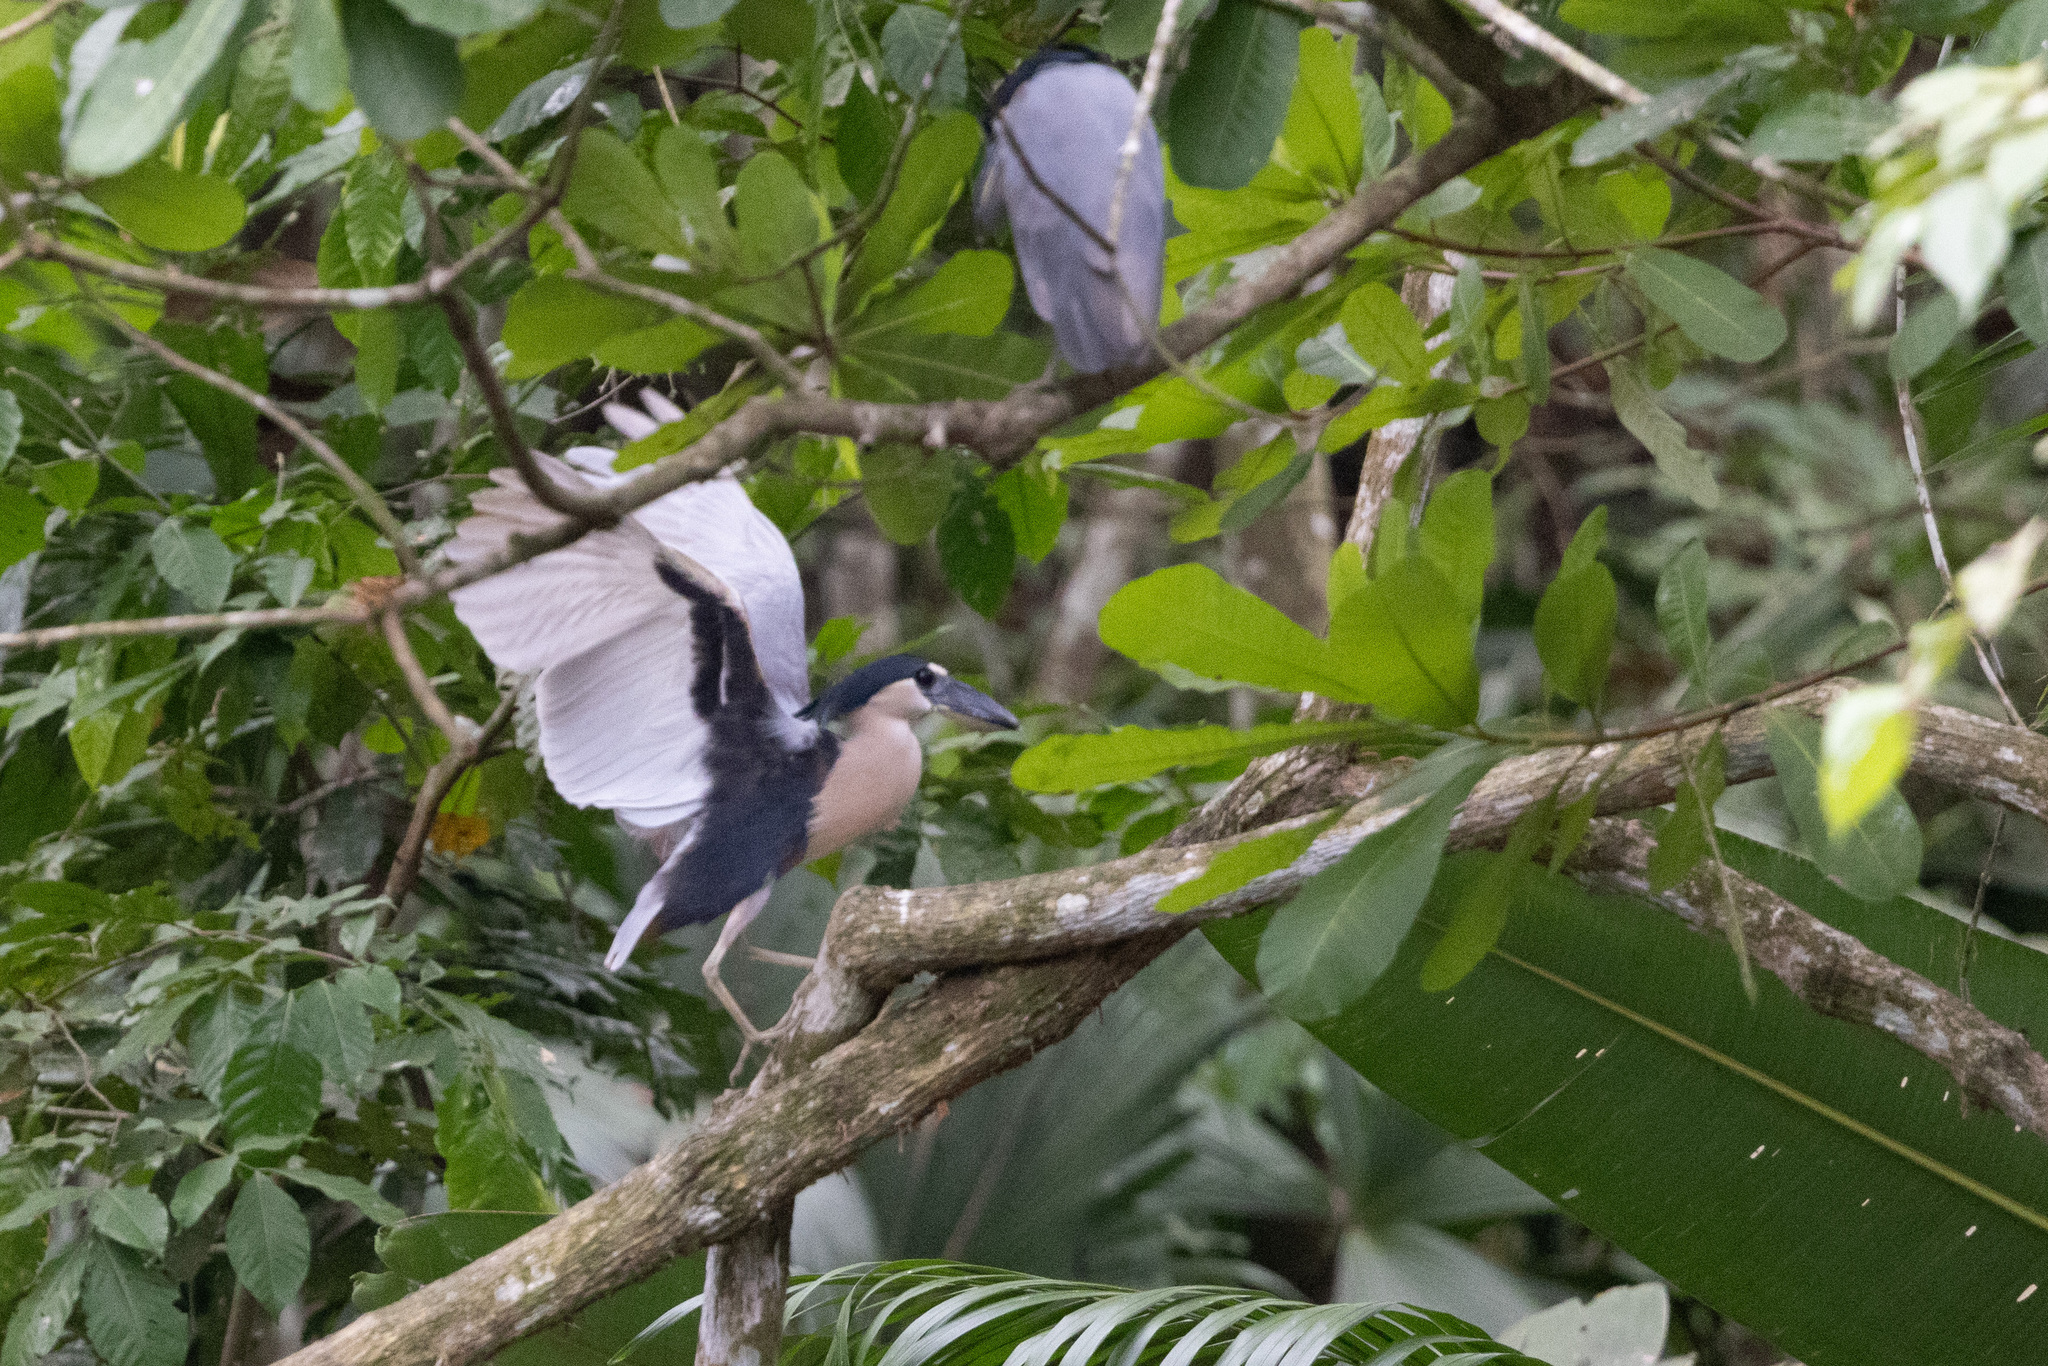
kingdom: Animalia
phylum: Chordata
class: Aves
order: Pelecaniformes
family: Ardeidae
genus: Cochlearius
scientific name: Cochlearius cochlearius
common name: Boat-billed heron
